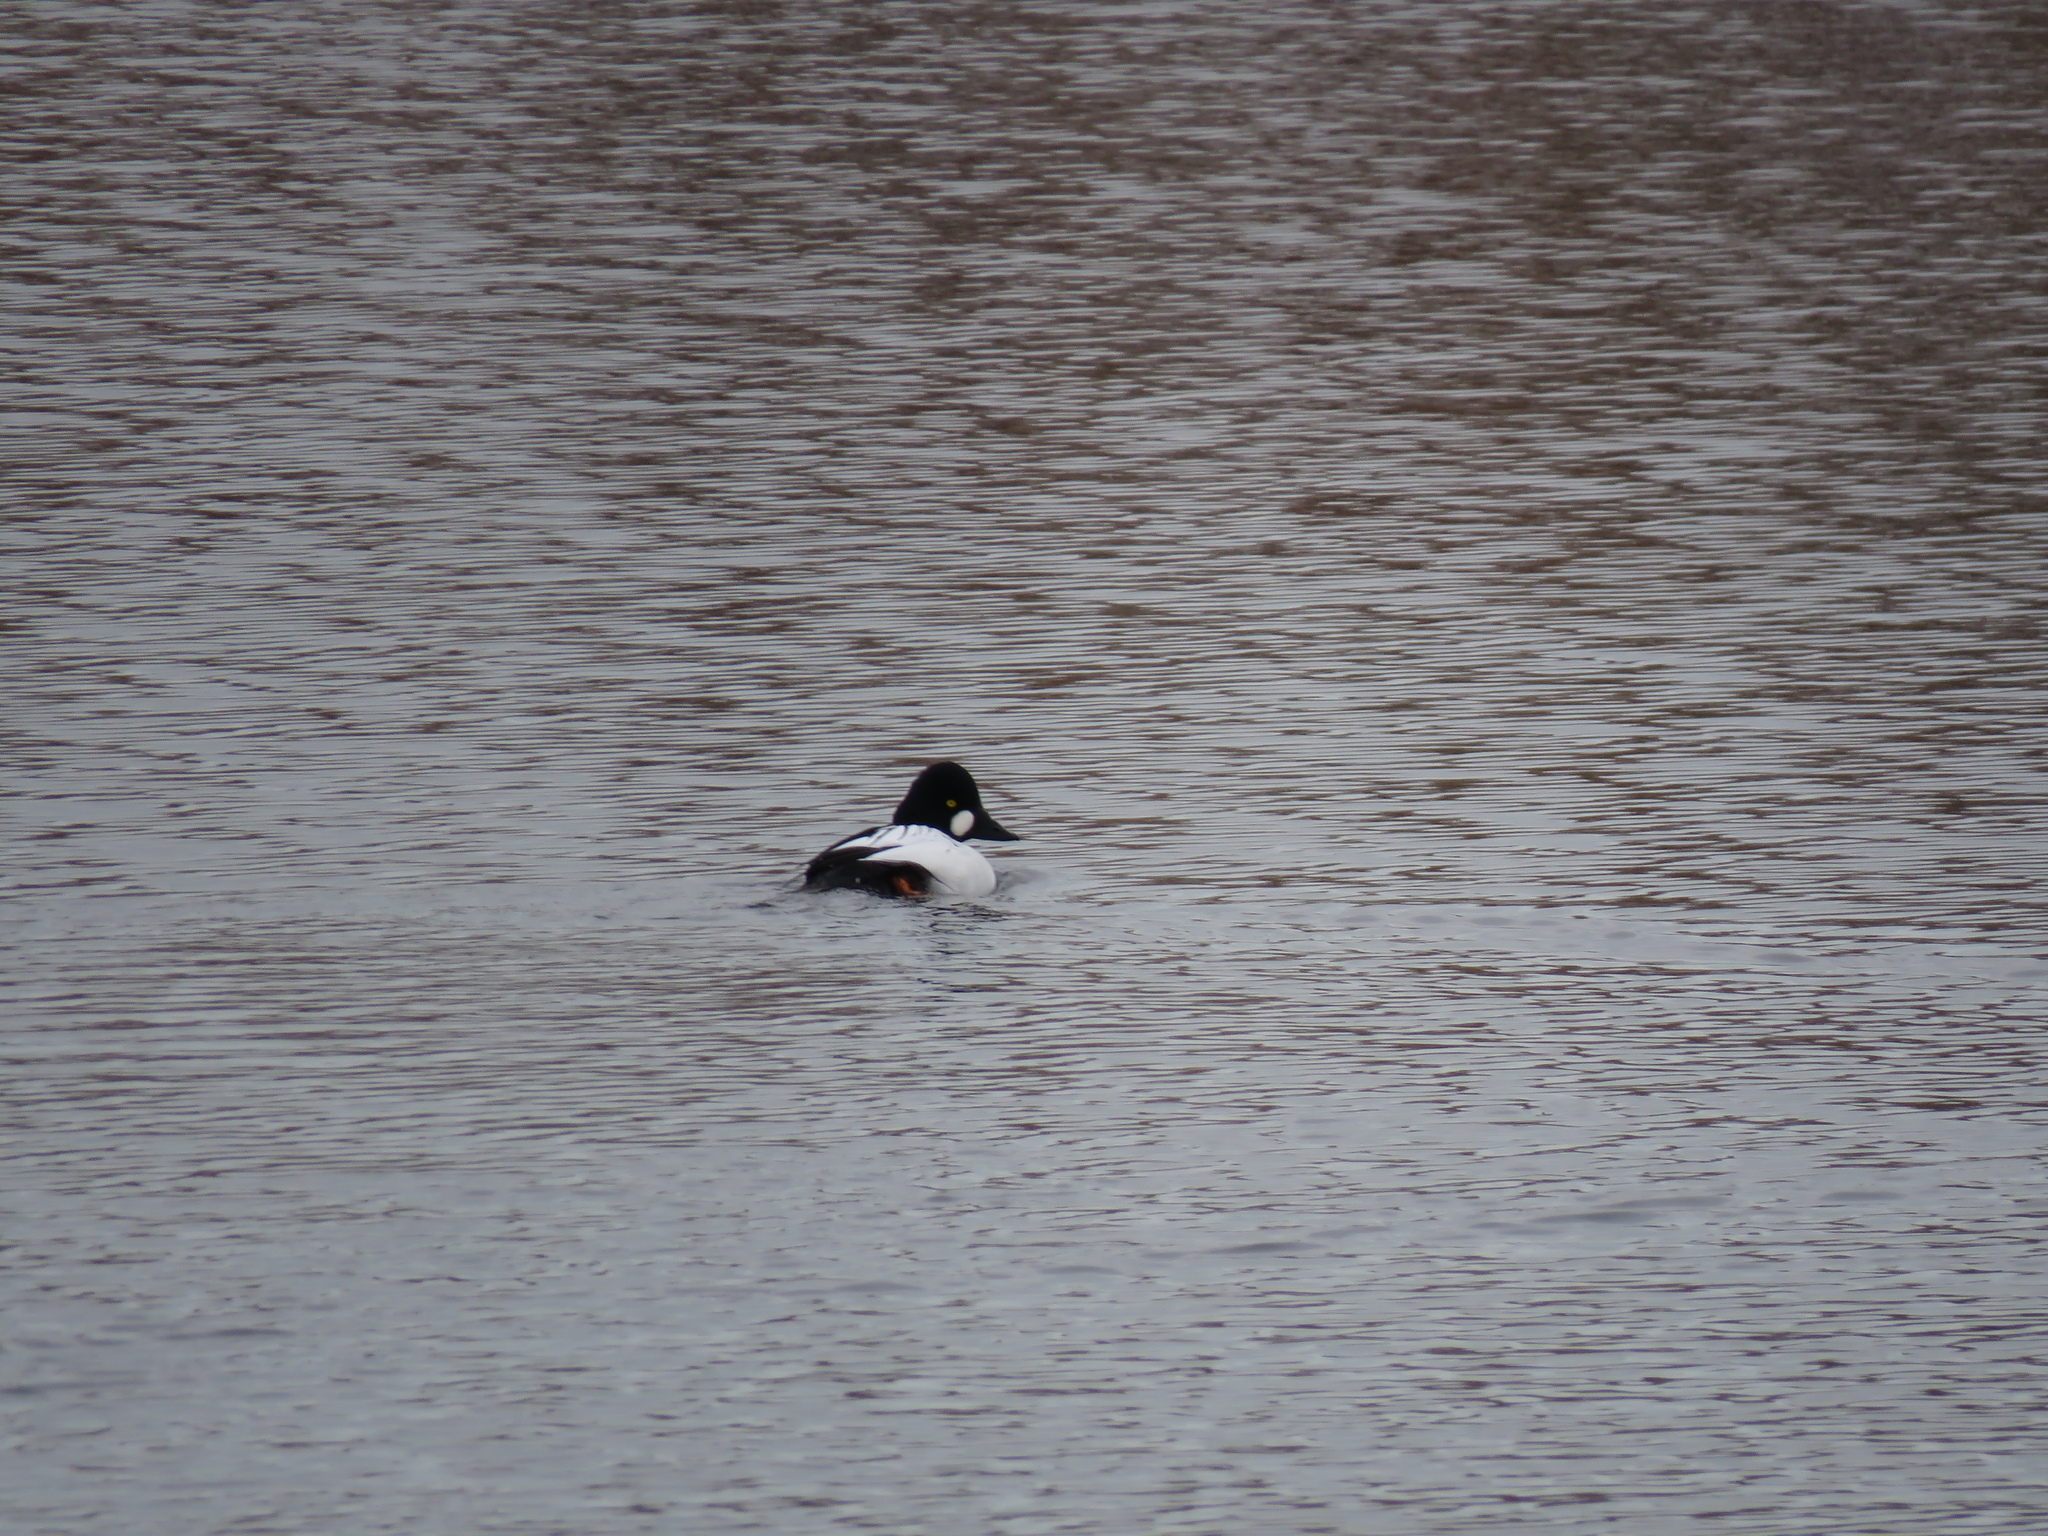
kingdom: Animalia
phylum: Chordata
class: Aves
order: Anseriformes
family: Anatidae
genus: Bucephala
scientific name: Bucephala clangula
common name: Common goldeneye
